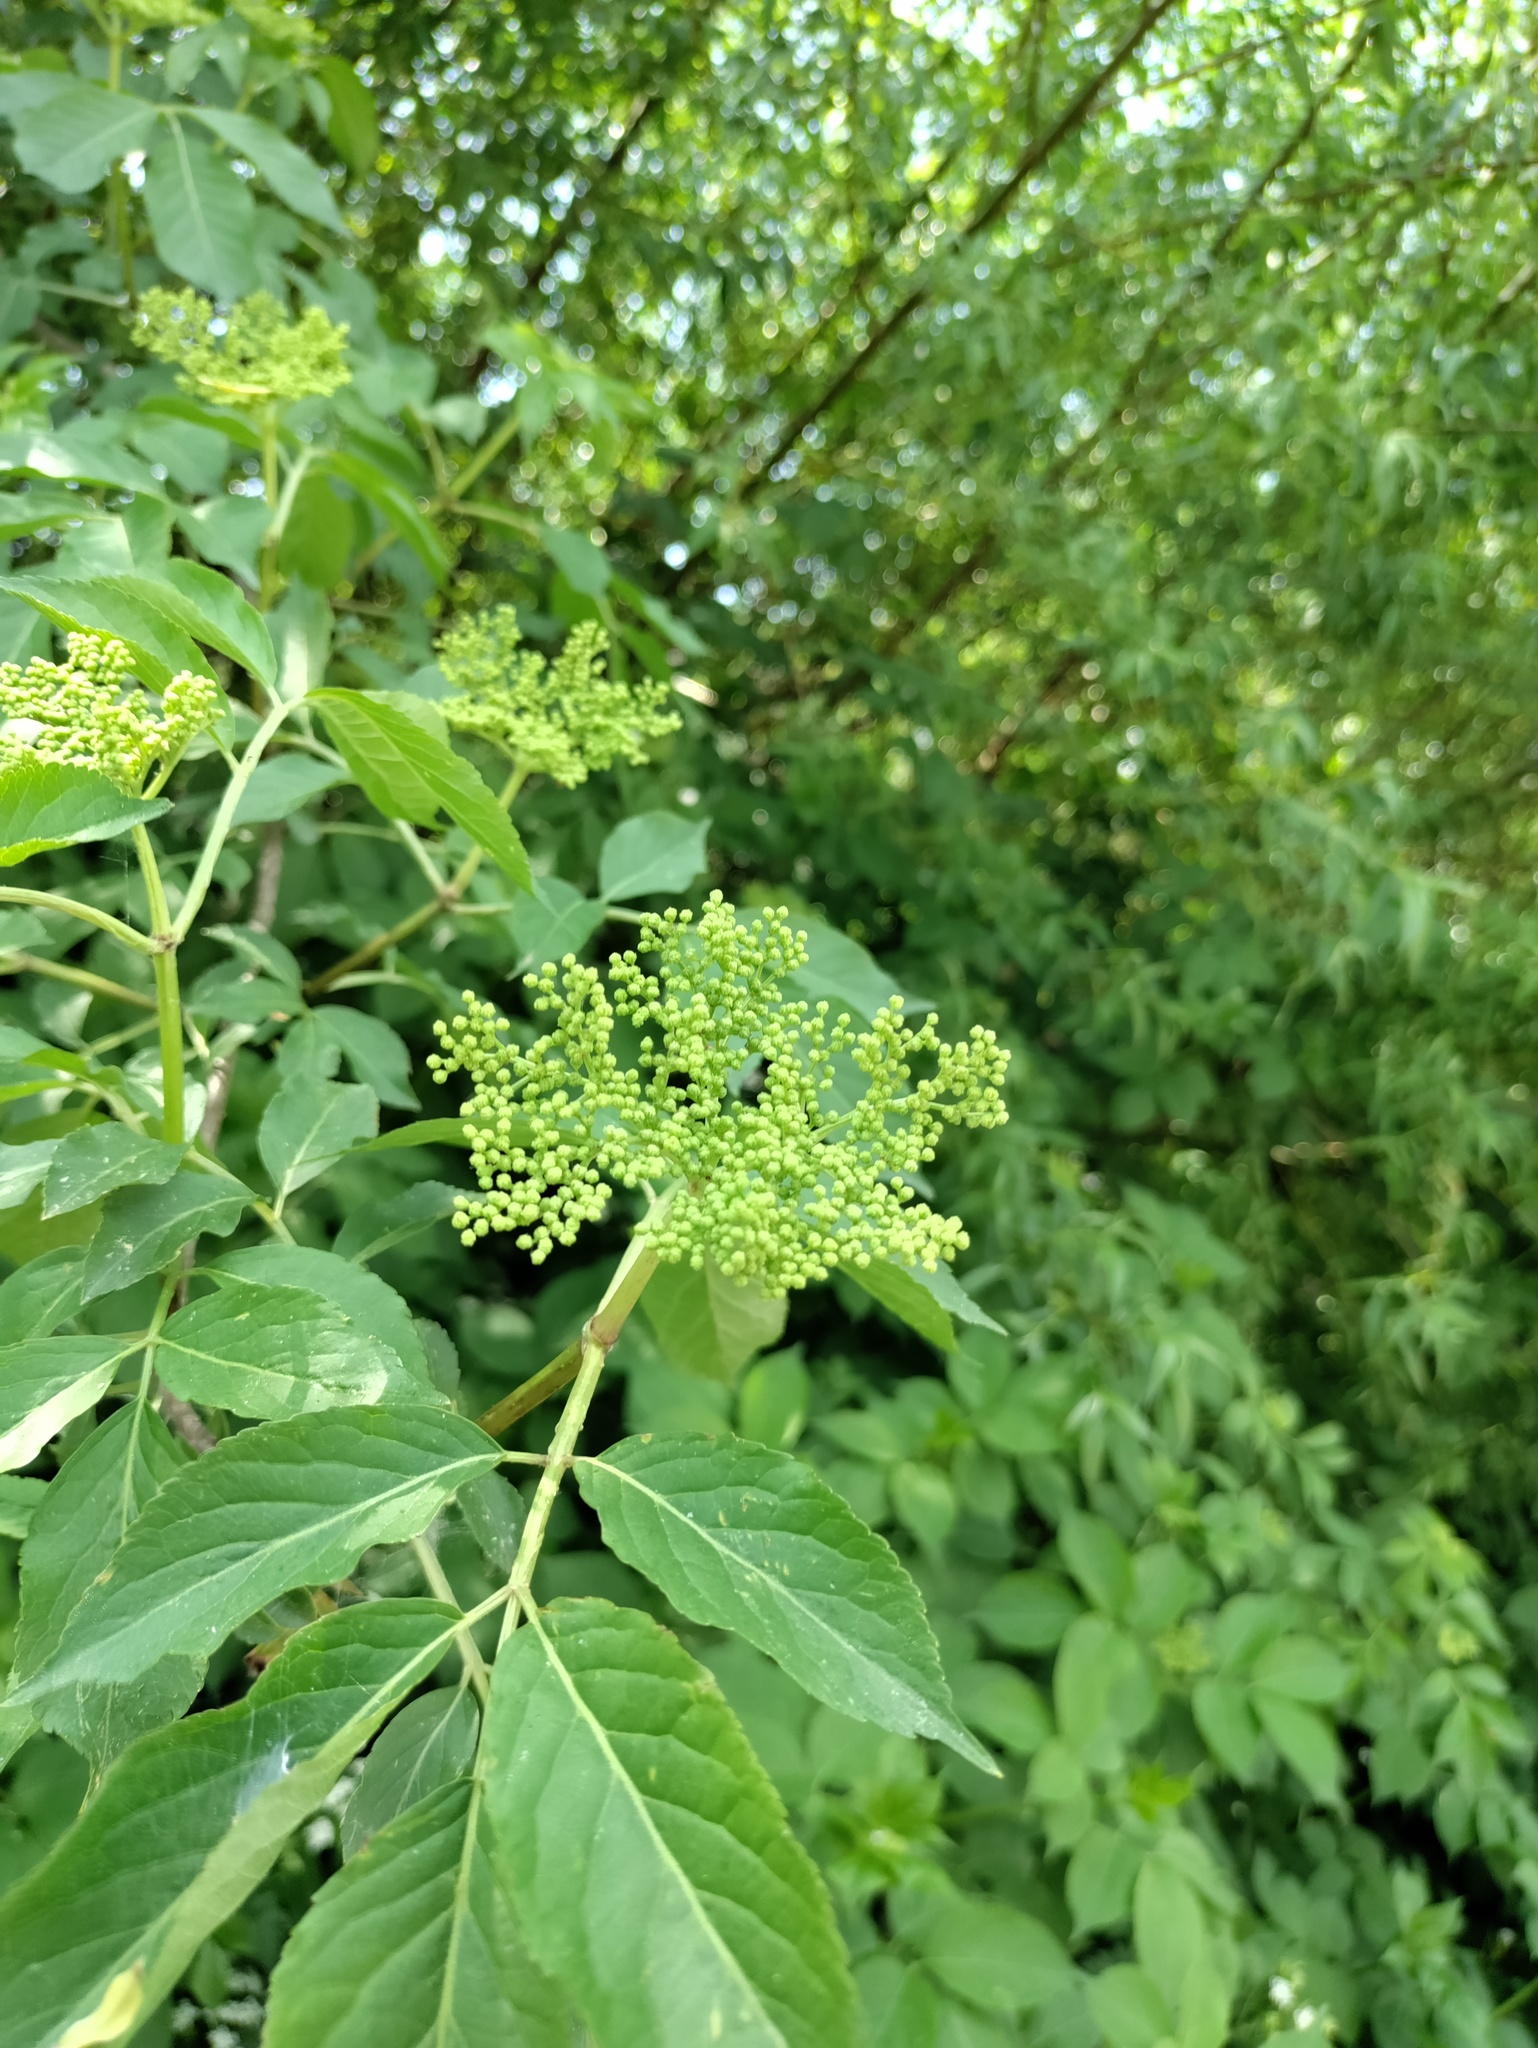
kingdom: Plantae
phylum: Tracheophyta
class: Magnoliopsida
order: Dipsacales
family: Viburnaceae
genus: Sambucus
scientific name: Sambucus nigra
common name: Elder
